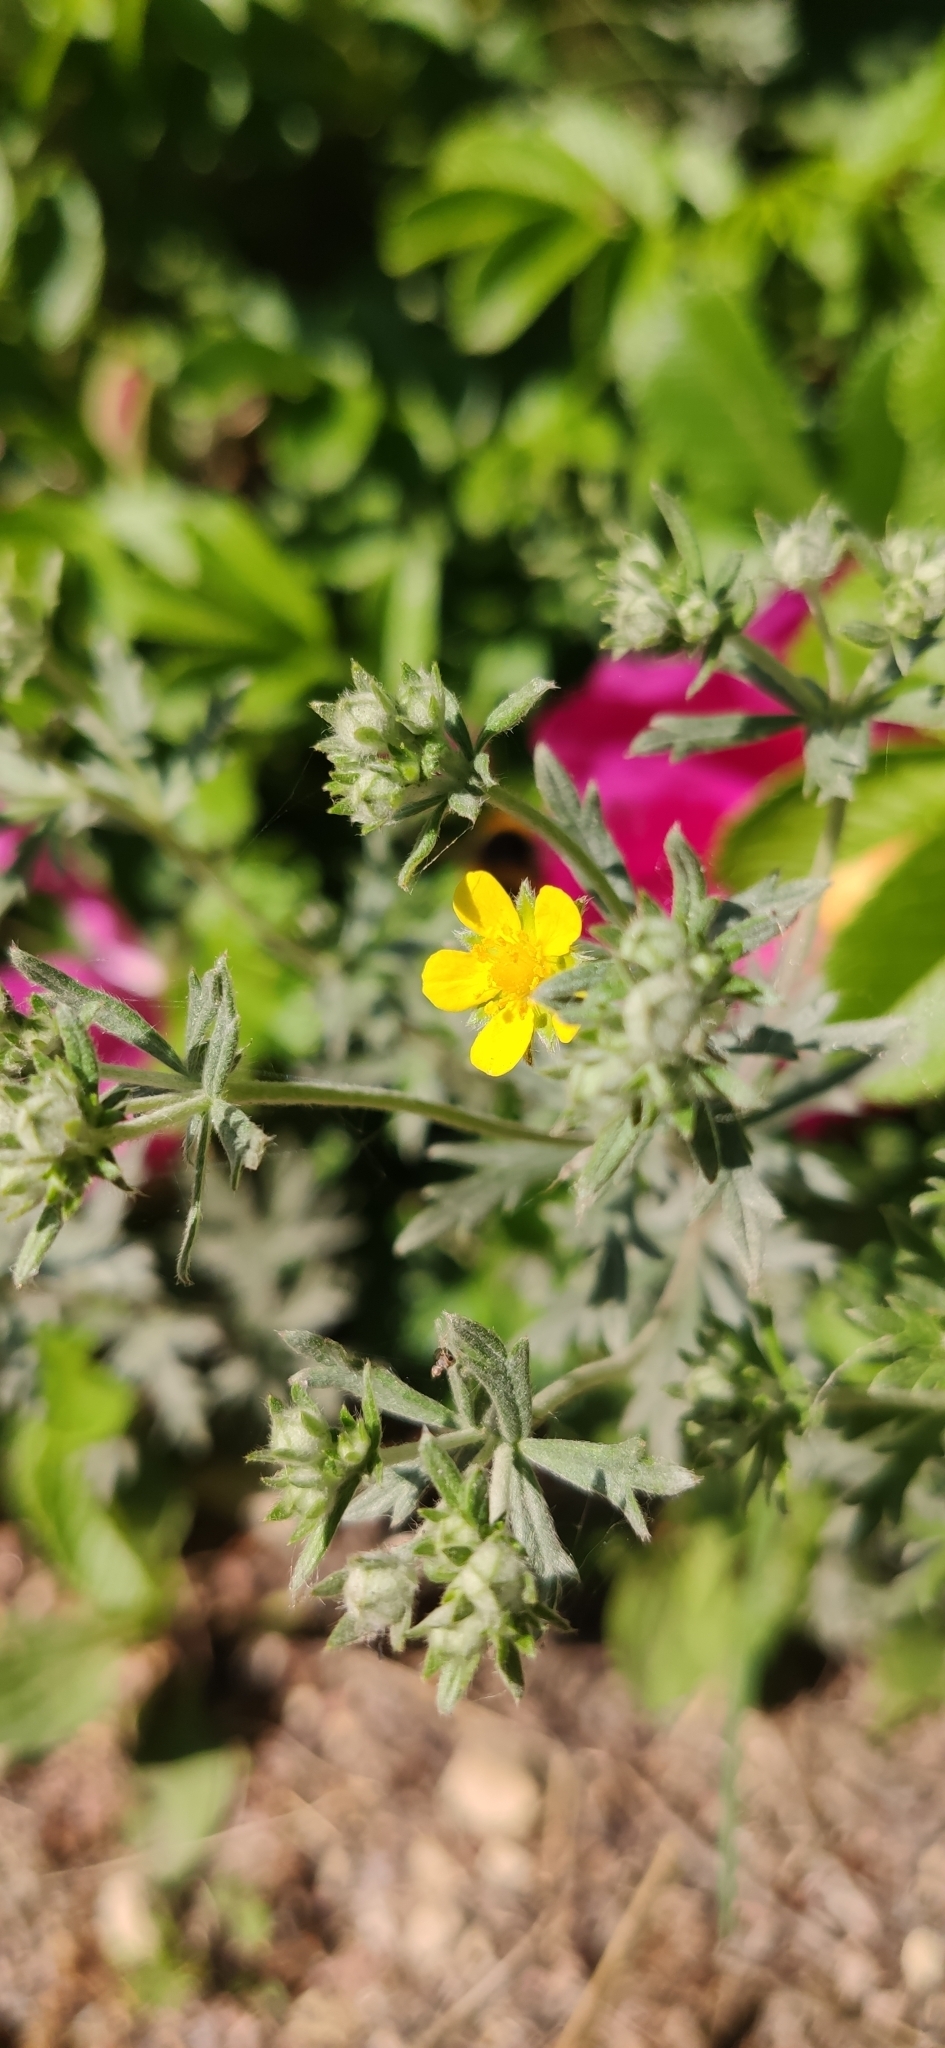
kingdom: Plantae
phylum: Tracheophyta
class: Magnoliopsida
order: Rosales
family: Rosaceae
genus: Potentilla
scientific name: Potentilla argentea
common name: Hoary cinquefoil
